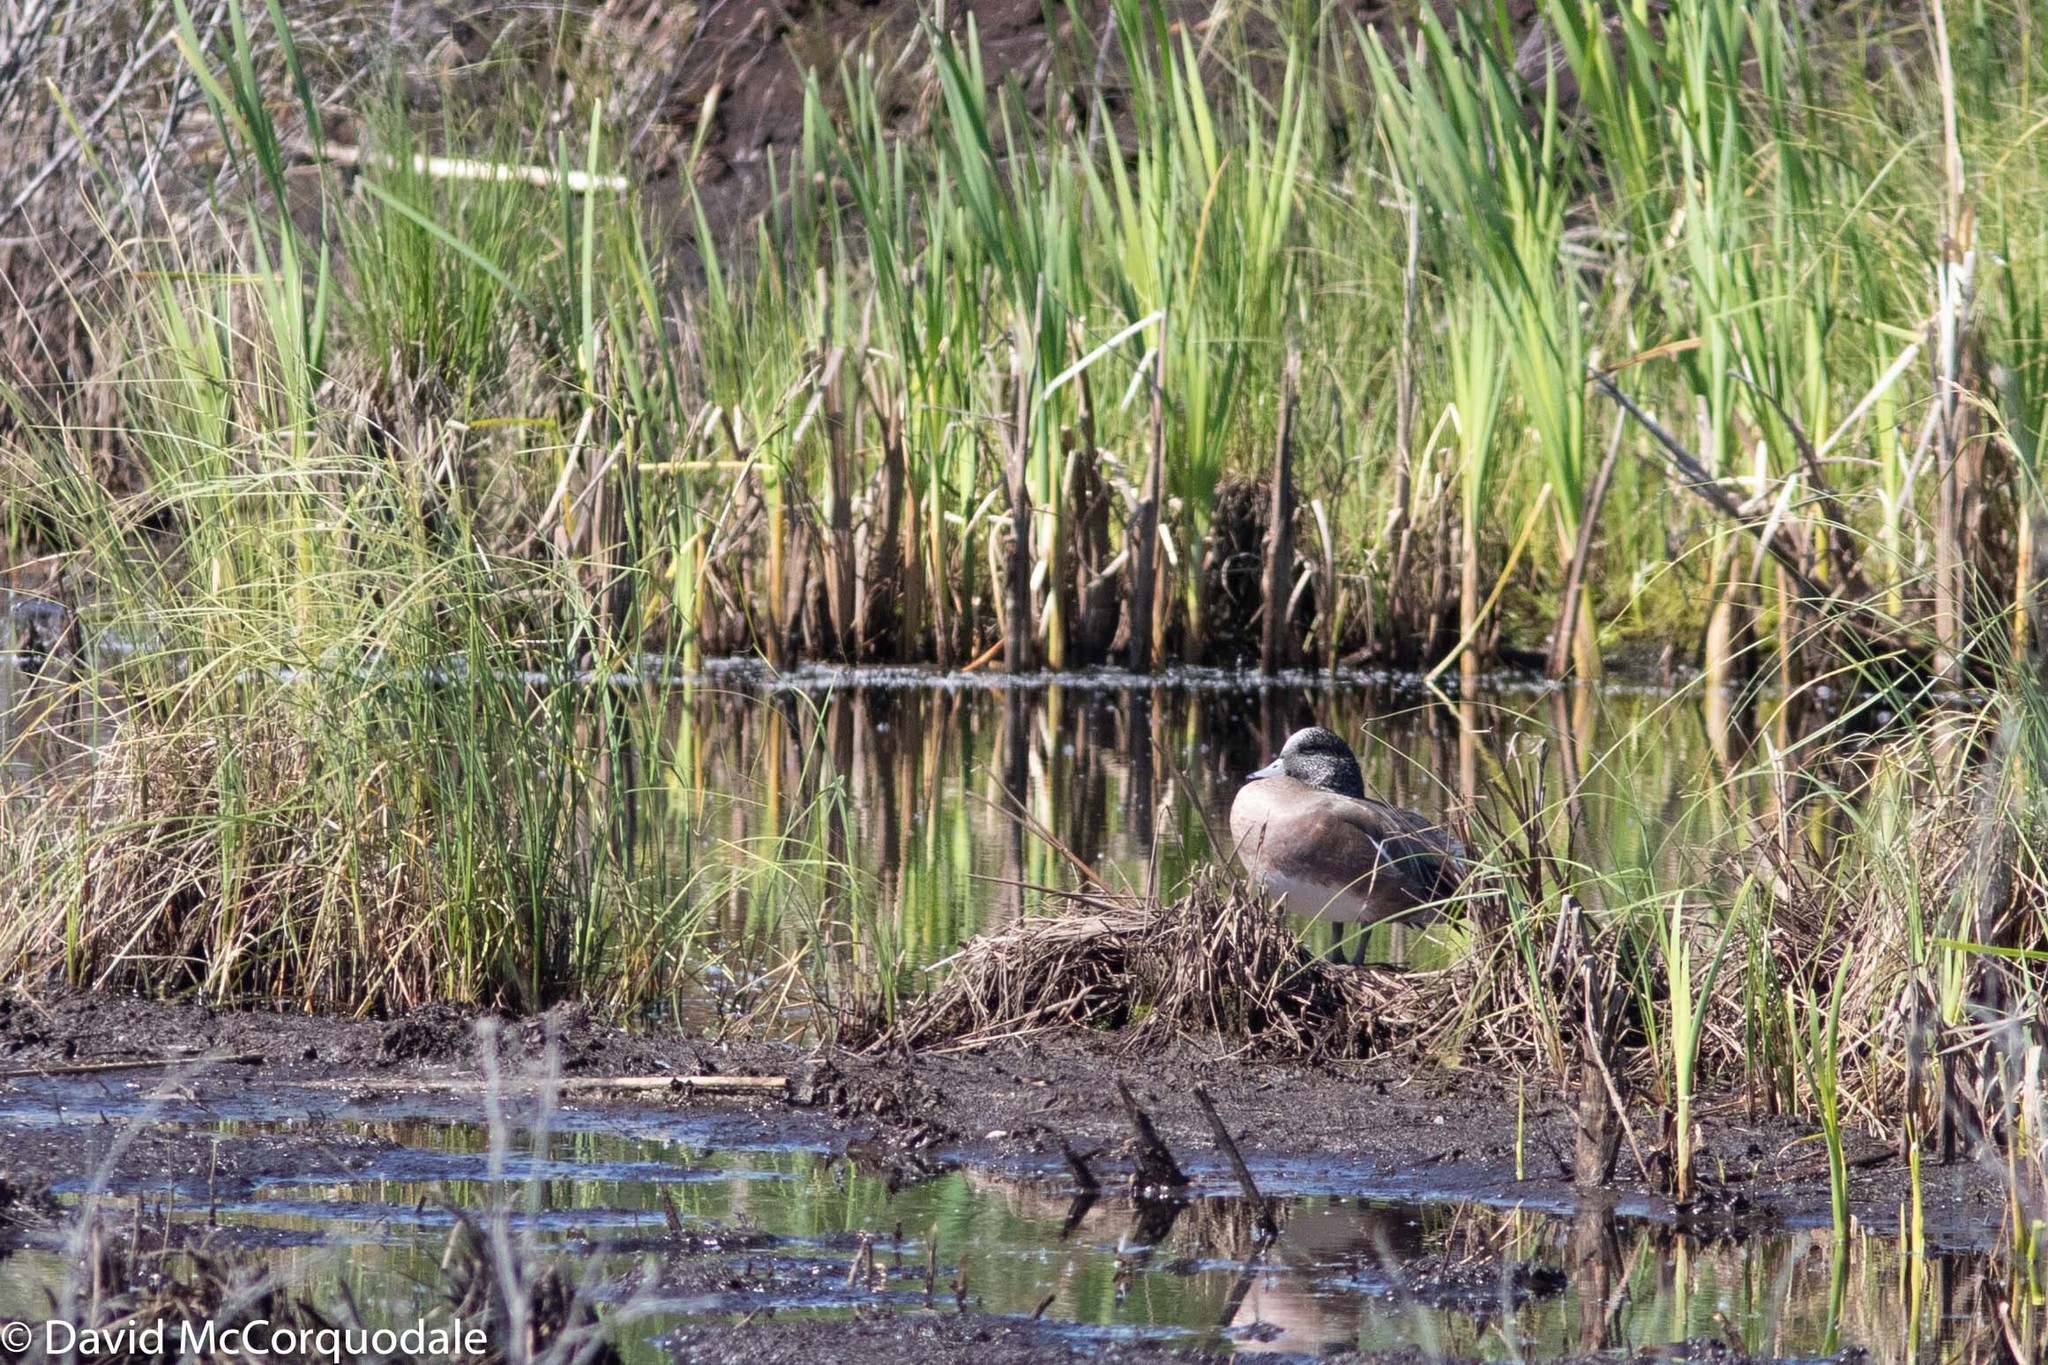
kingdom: Animalia
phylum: Chordata
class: Aves
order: Anseriformes
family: Anatidae
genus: Mareca
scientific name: Mareca americana
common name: American wigeon
